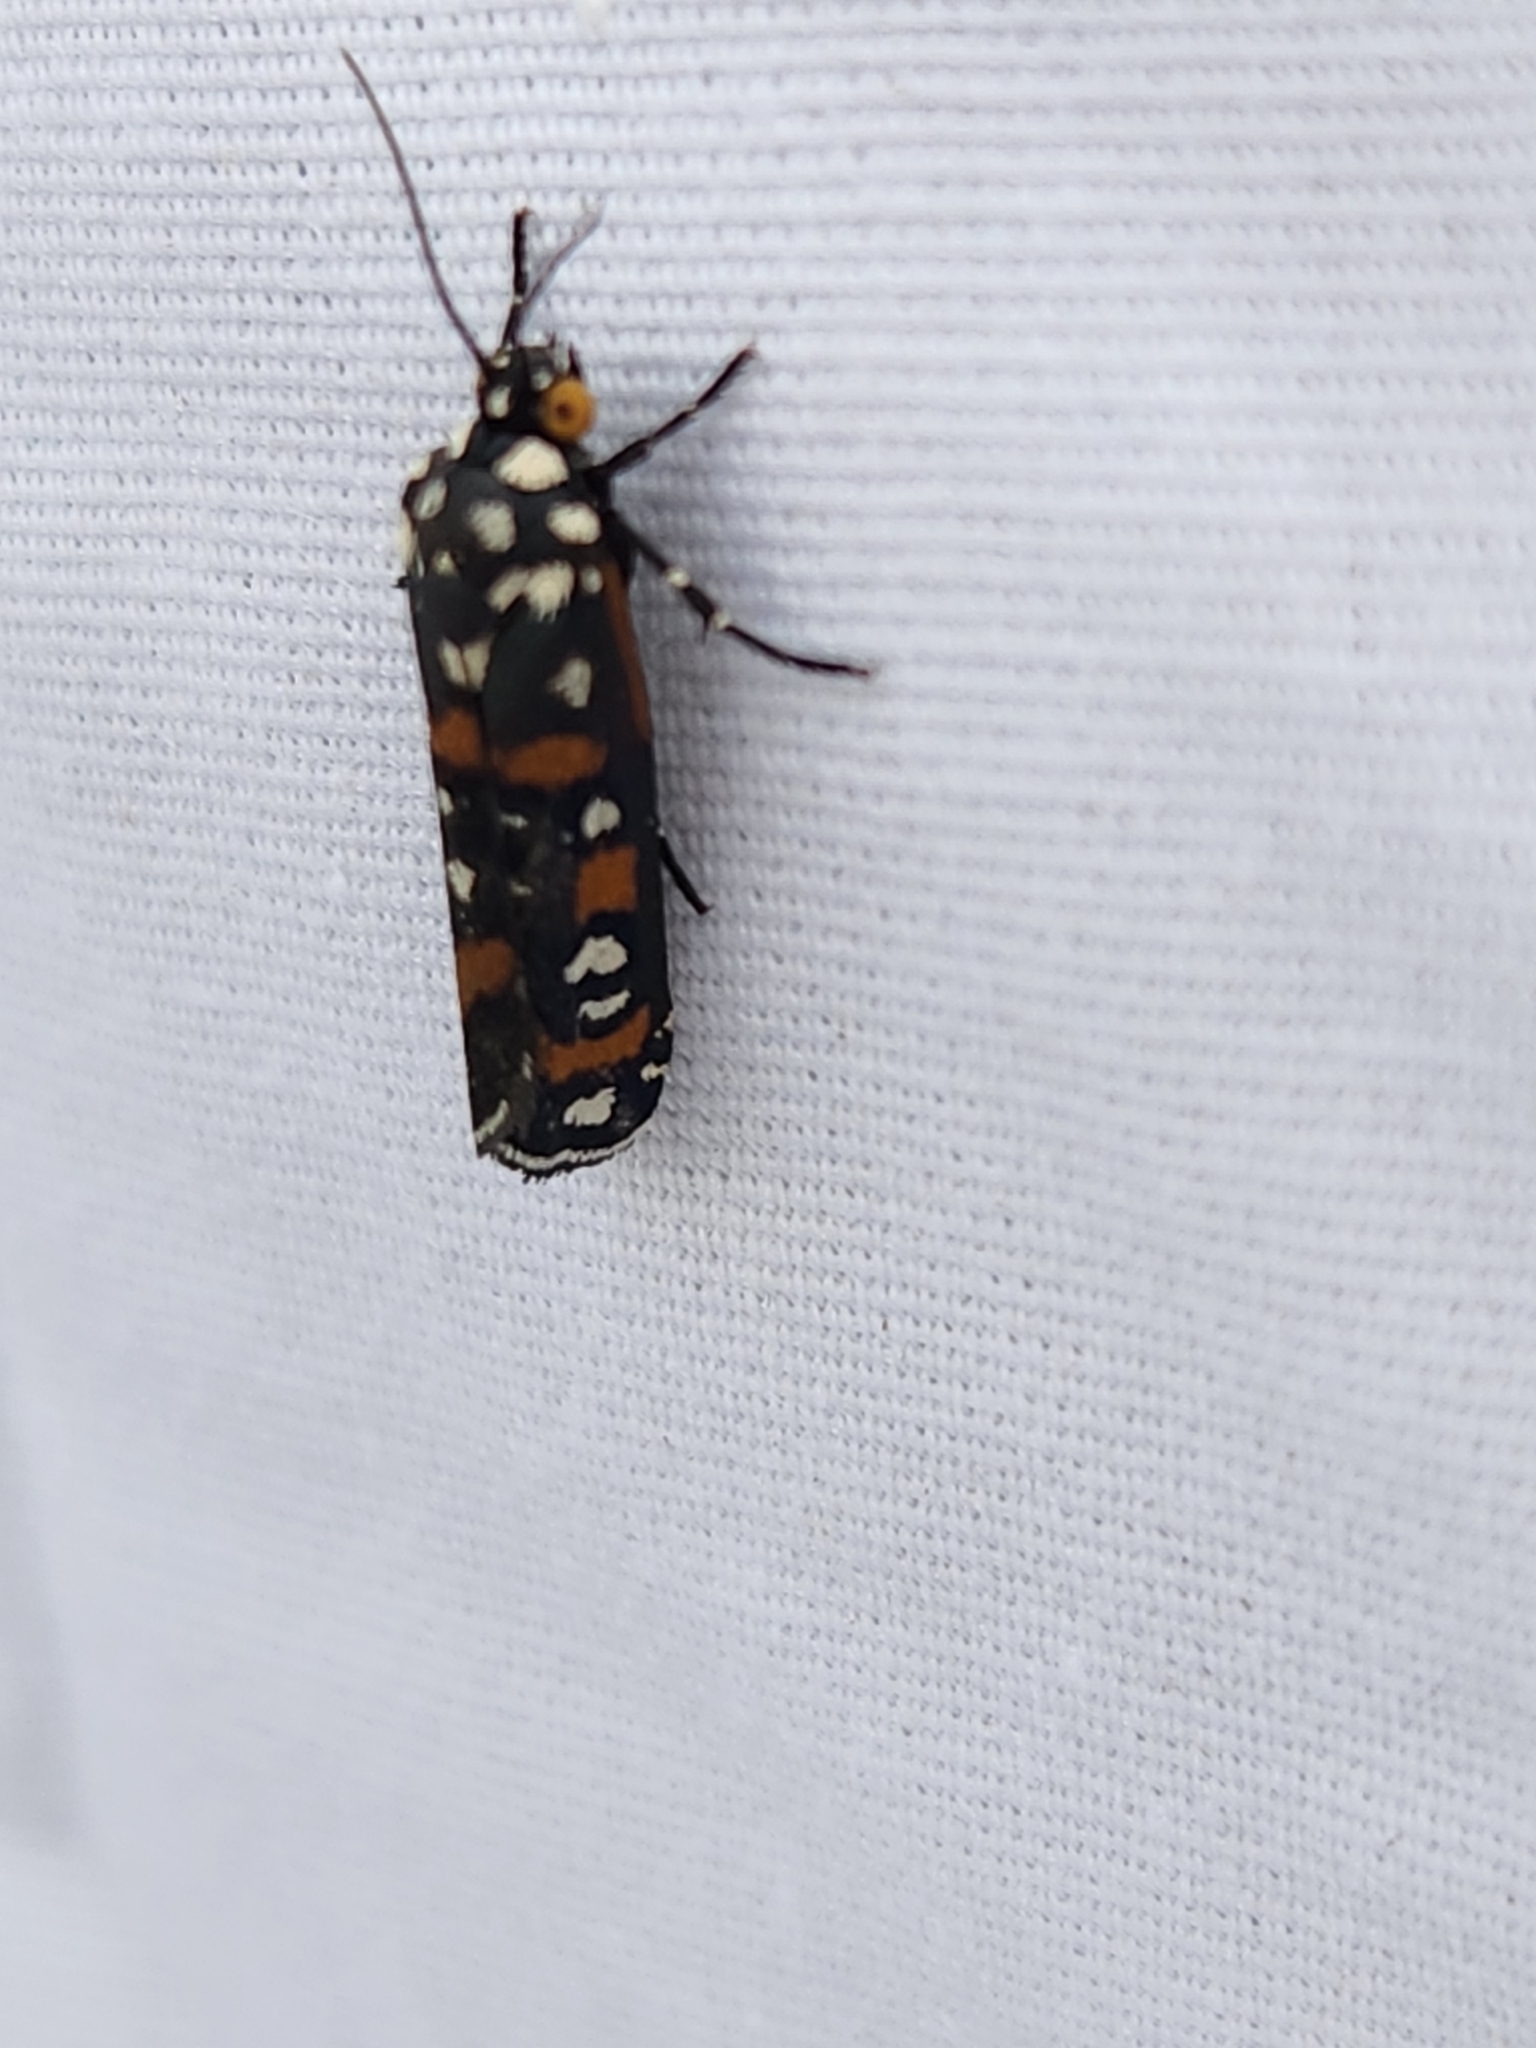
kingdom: Animalia
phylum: Arthropoda
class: Insecta
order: Lepidoptera
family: Noctuidae
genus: Cydosia
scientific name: Cydosia aurivitta
